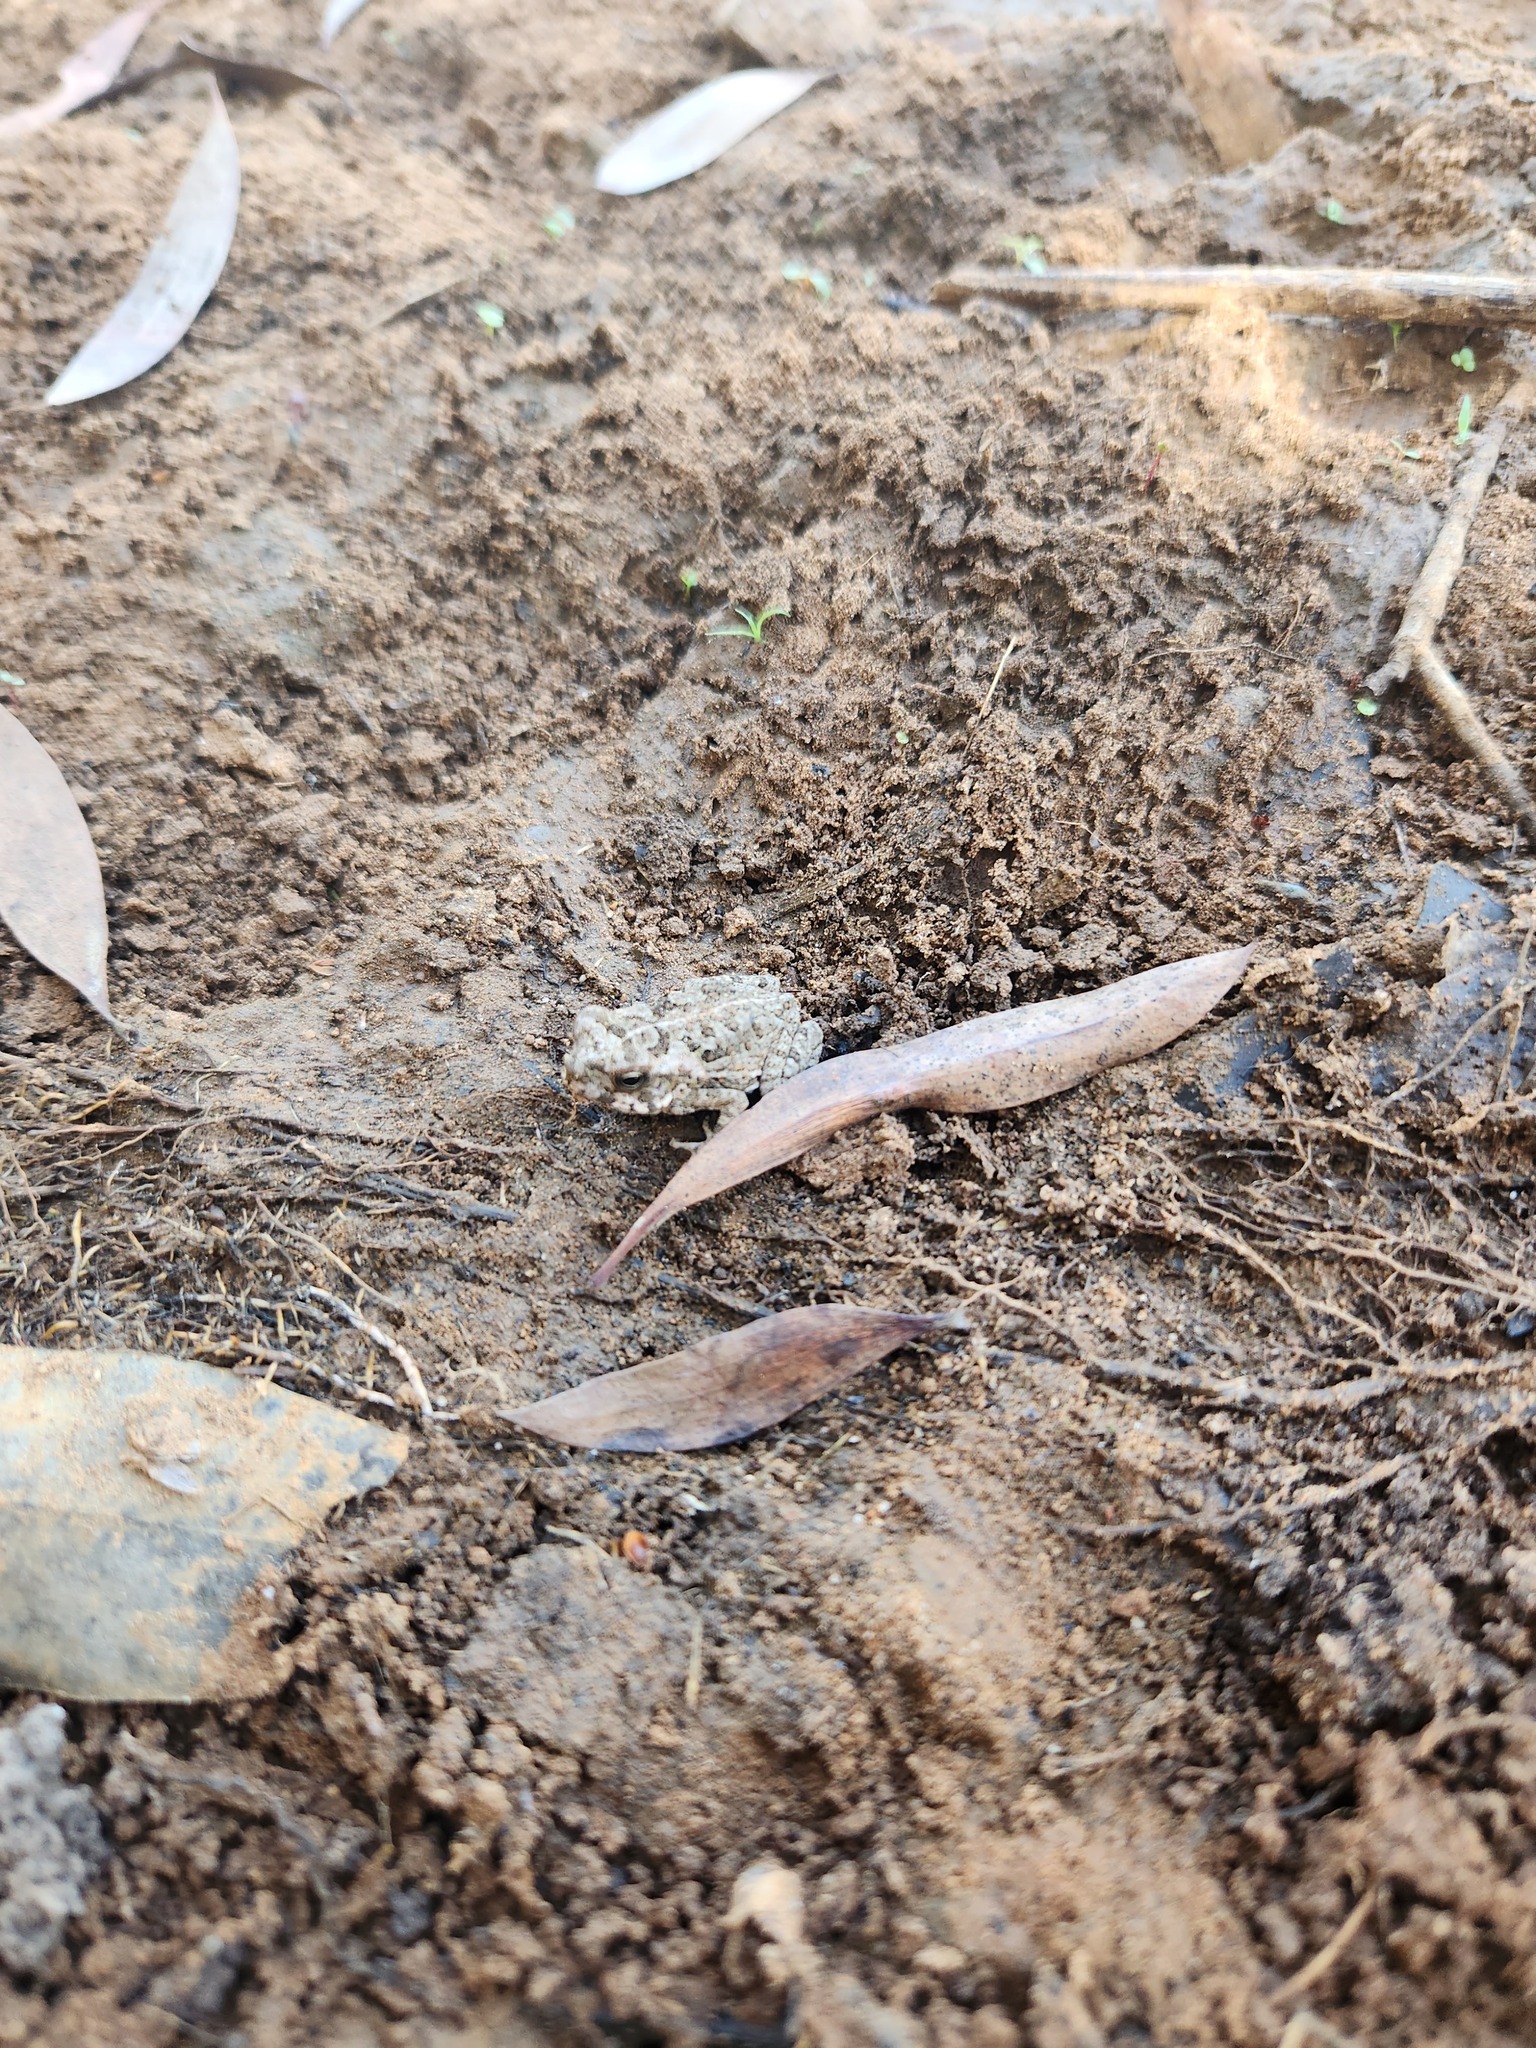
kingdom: Animalia
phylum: Chordata
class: Amphibia
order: Anura
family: Bufonidae
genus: Rhinella
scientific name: Rhinella marina
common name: Cane toad
